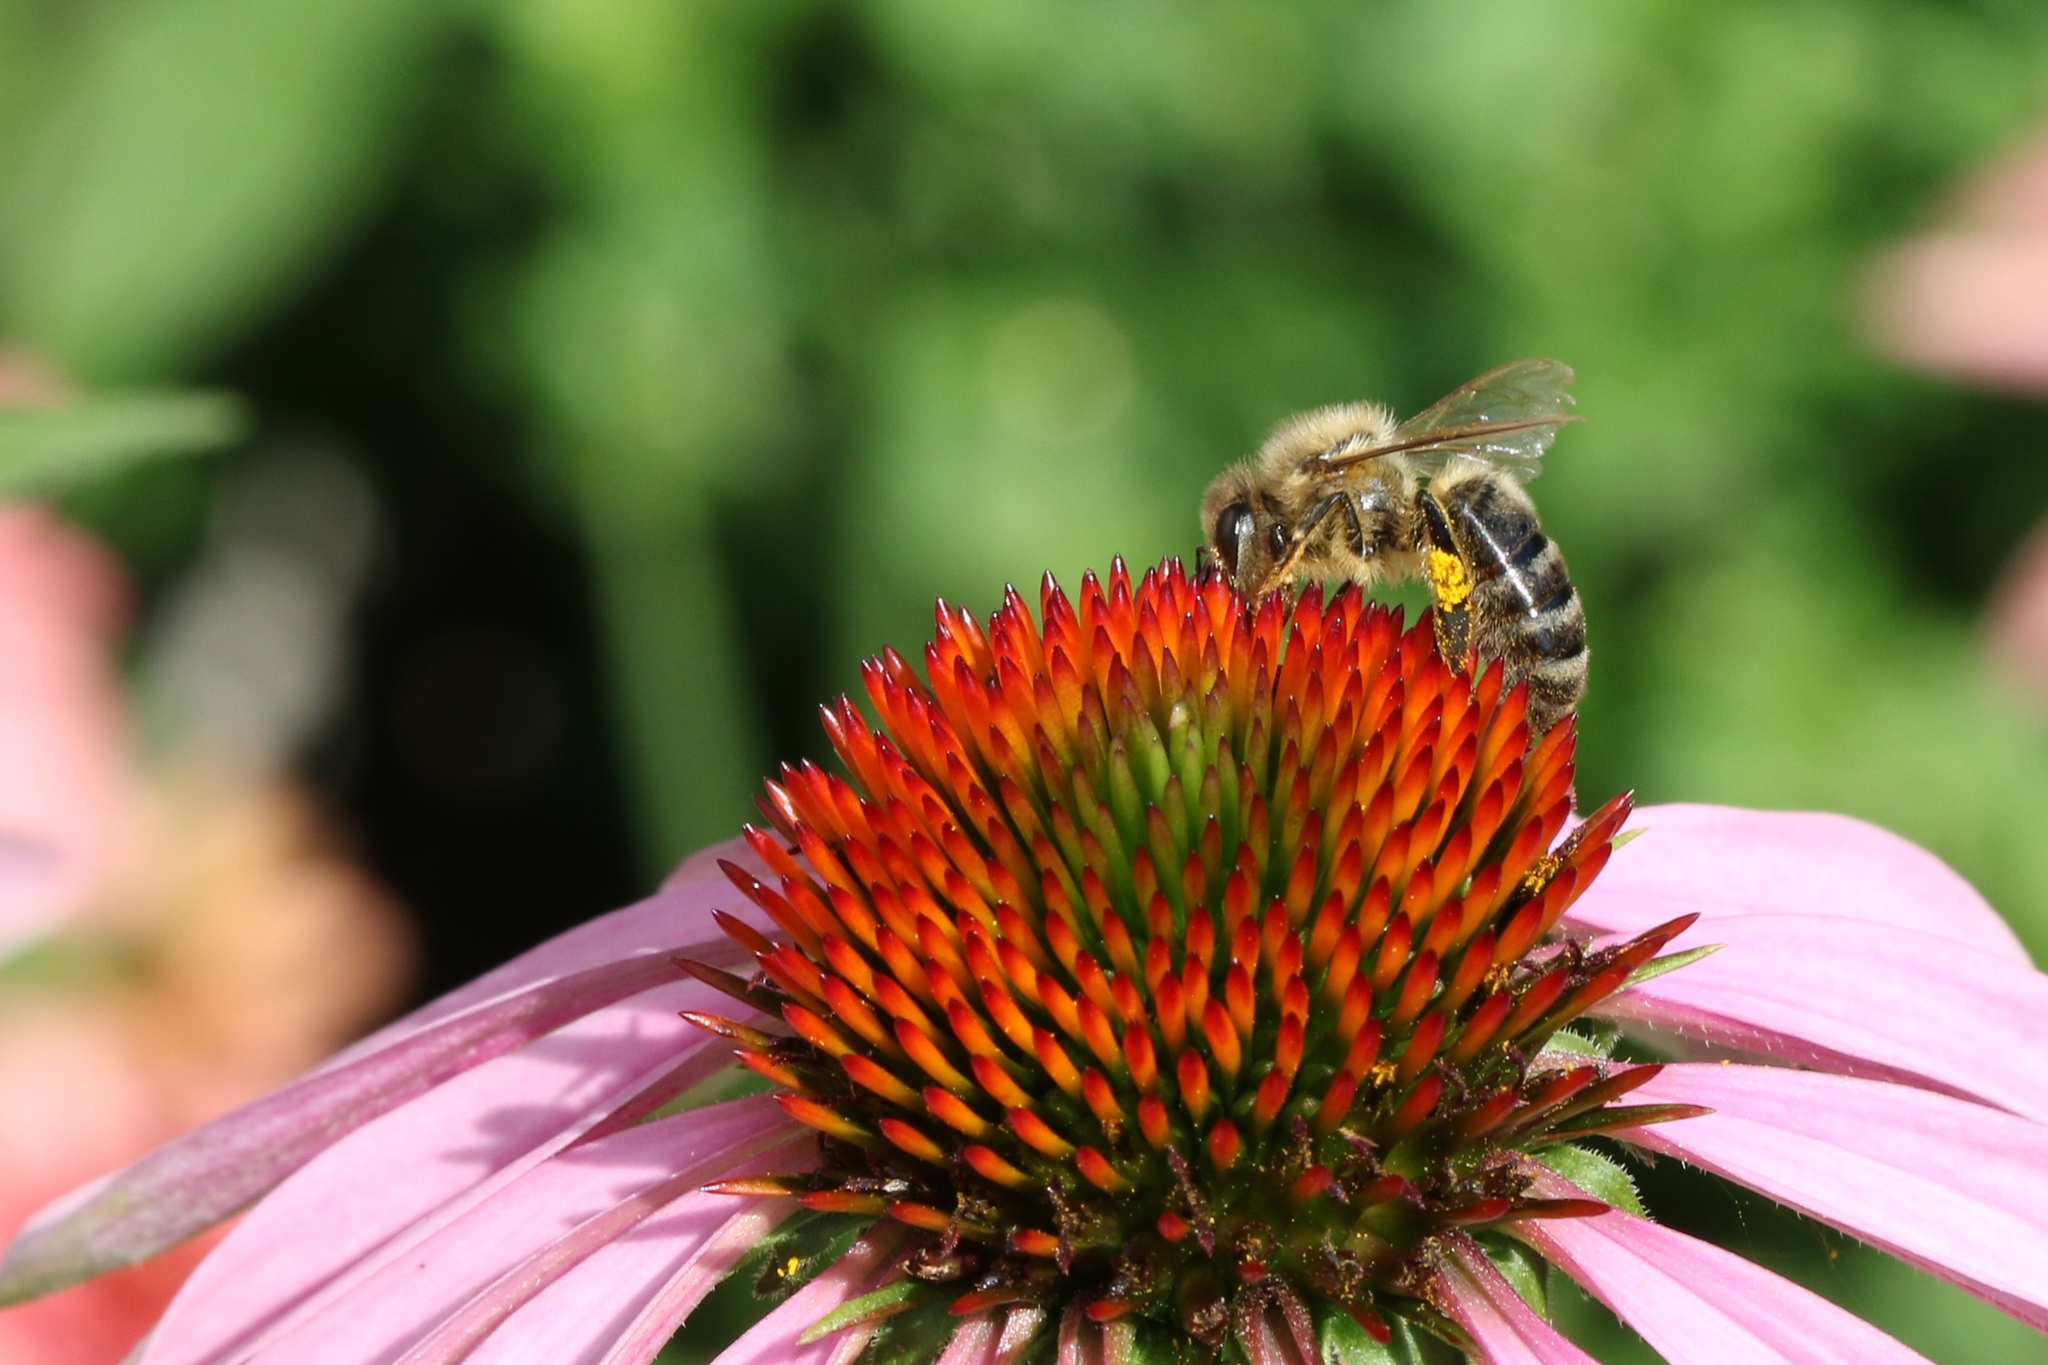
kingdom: Animalia
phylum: Arthropoda
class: Insecta
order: Hymenoptera
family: Apidae
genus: Apis
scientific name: Apis mellifera
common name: Honey bee
